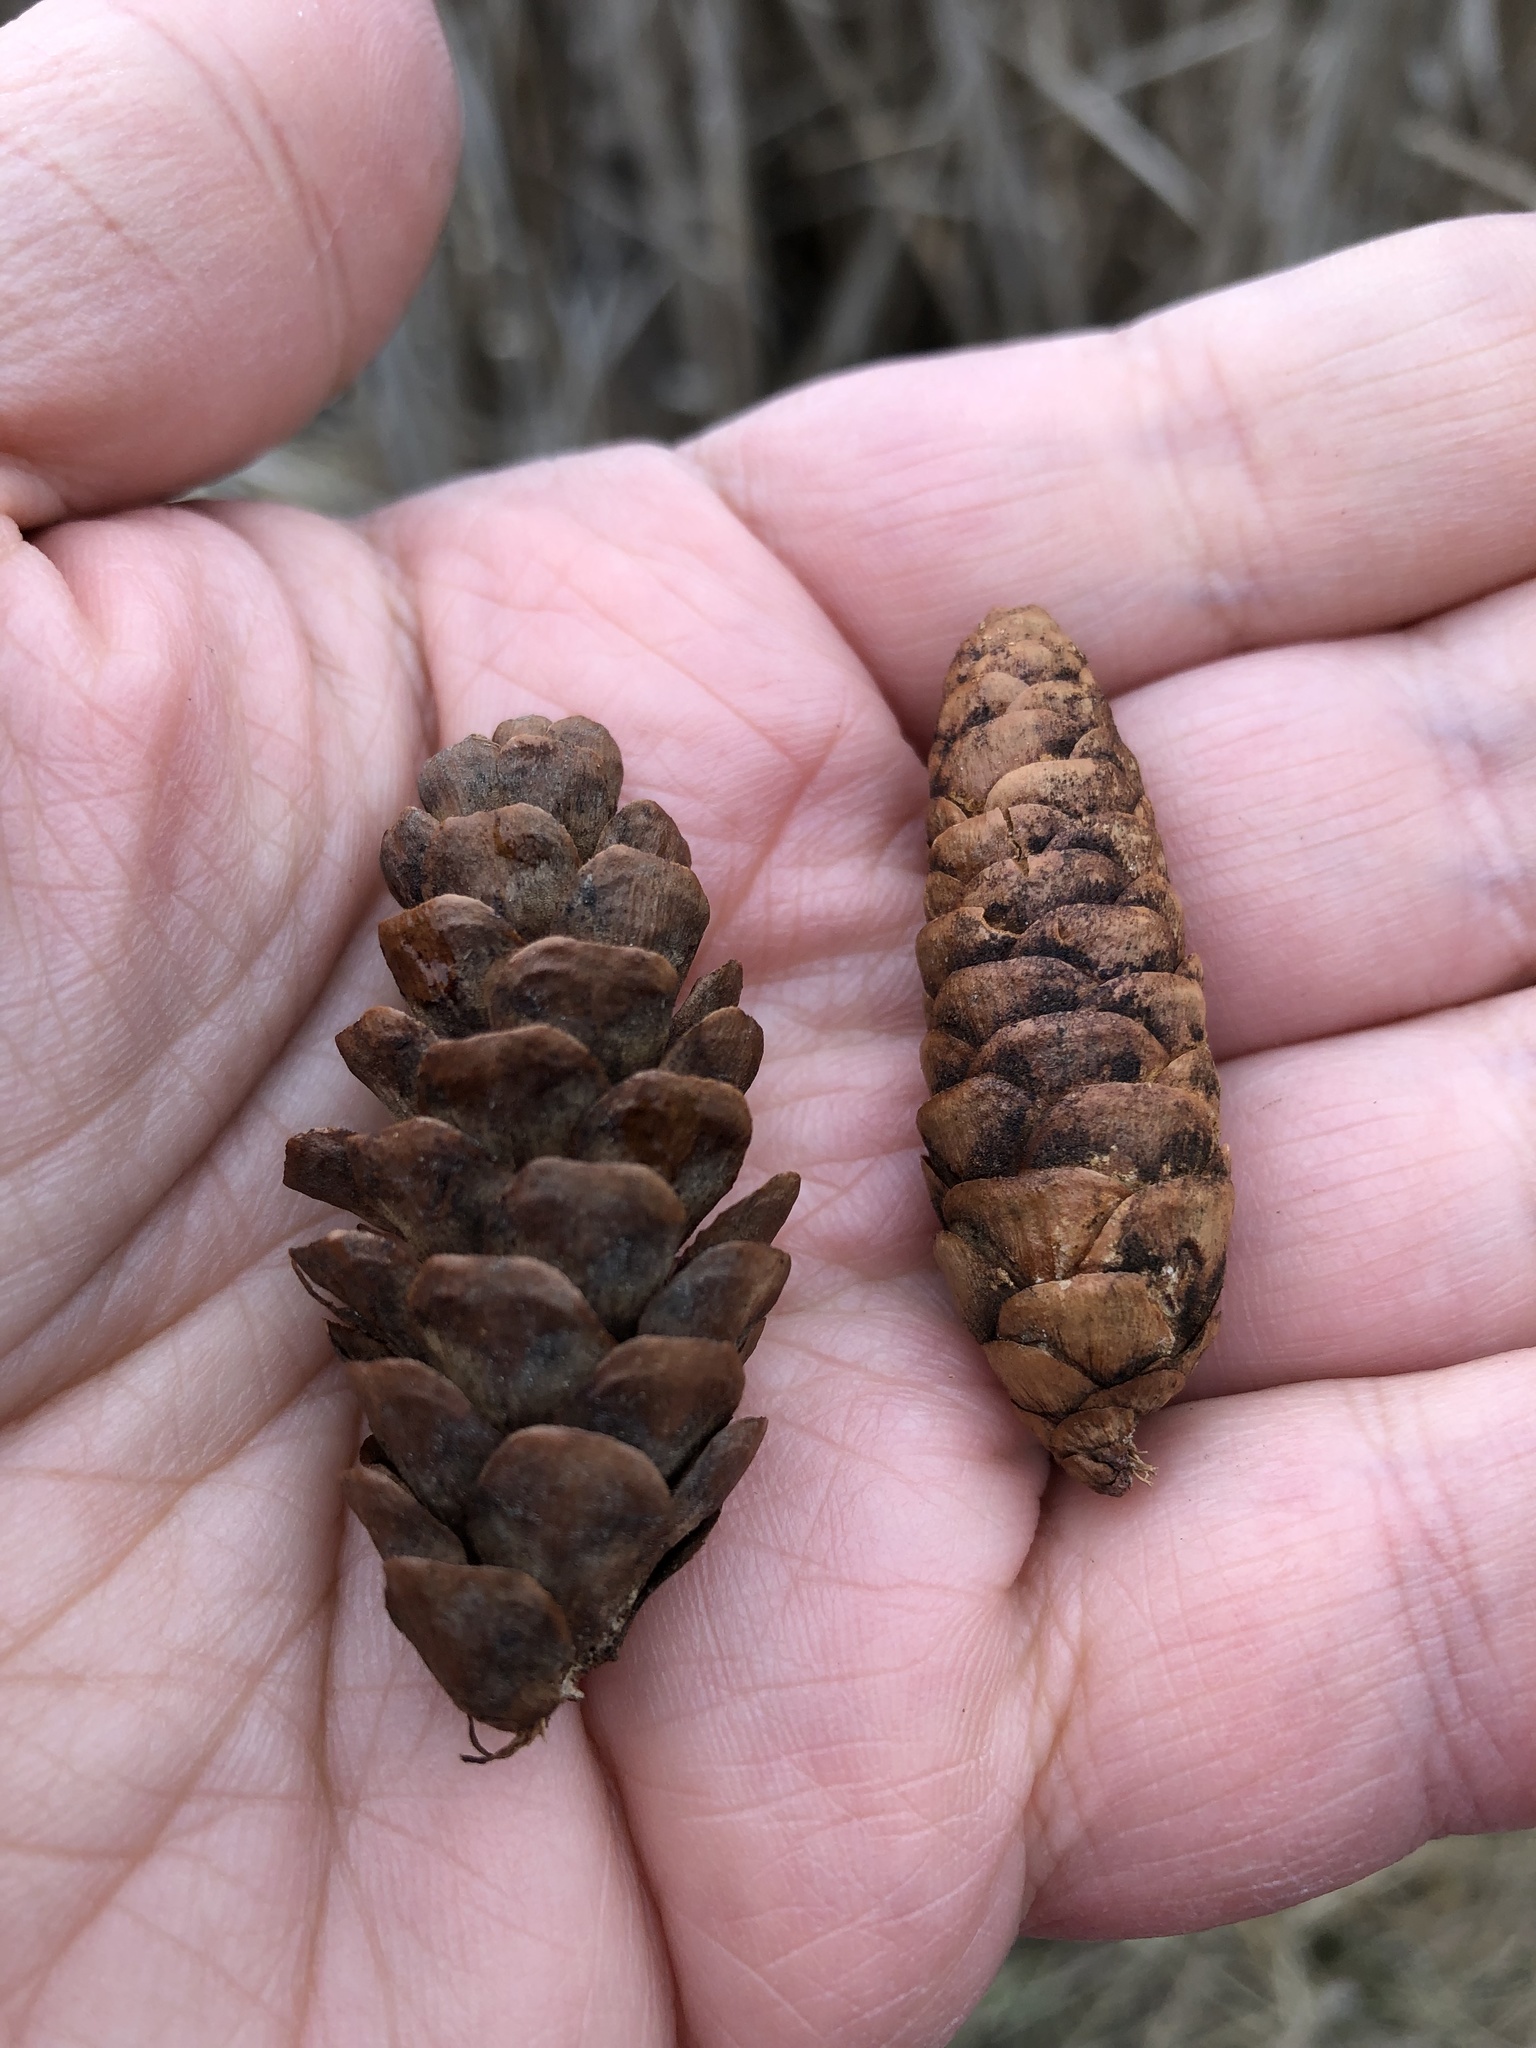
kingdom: Plantae
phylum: Tracheophyta
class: Pinopsida
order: Pinales
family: Pinaceae
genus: Picea
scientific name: Picea glauca
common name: White spruce
